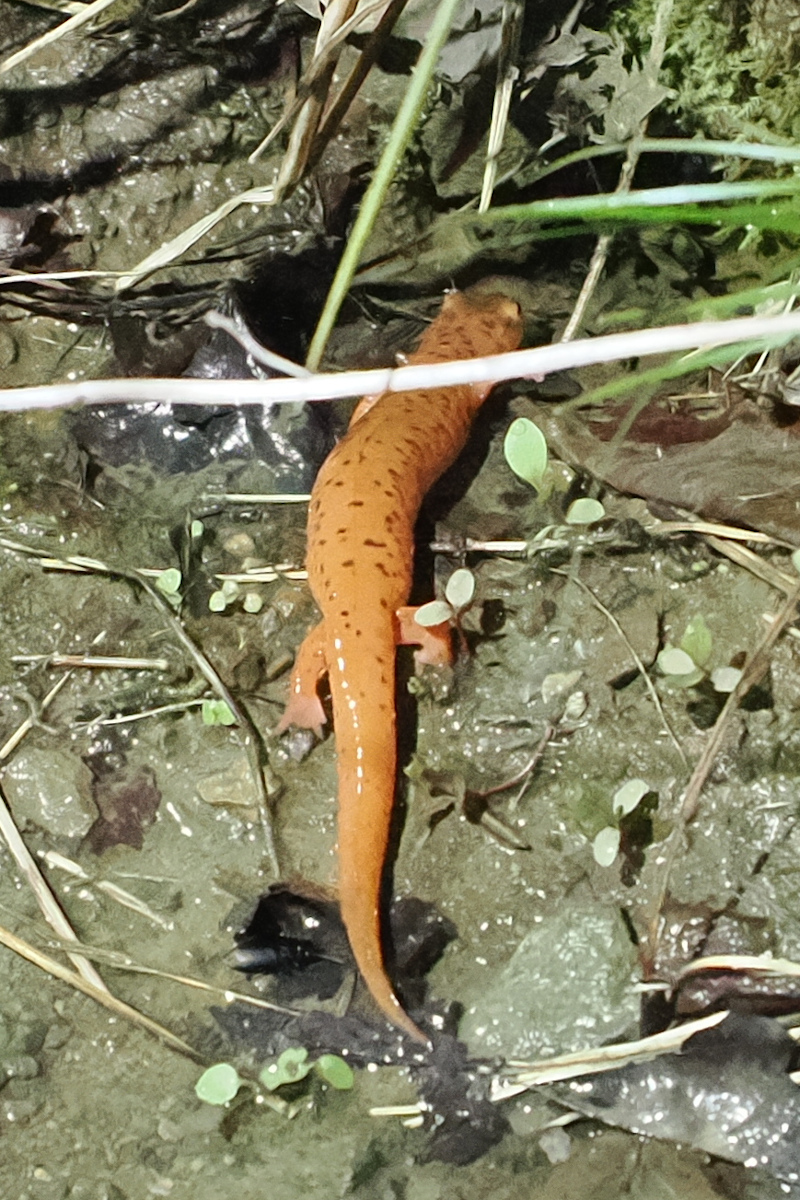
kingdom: Animalia
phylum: Chordata
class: Amphibia
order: Caudata
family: Plethodontidae
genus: Gyrinophilus
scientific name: Gyrinophilus porphyriticus
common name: Spring salamander
